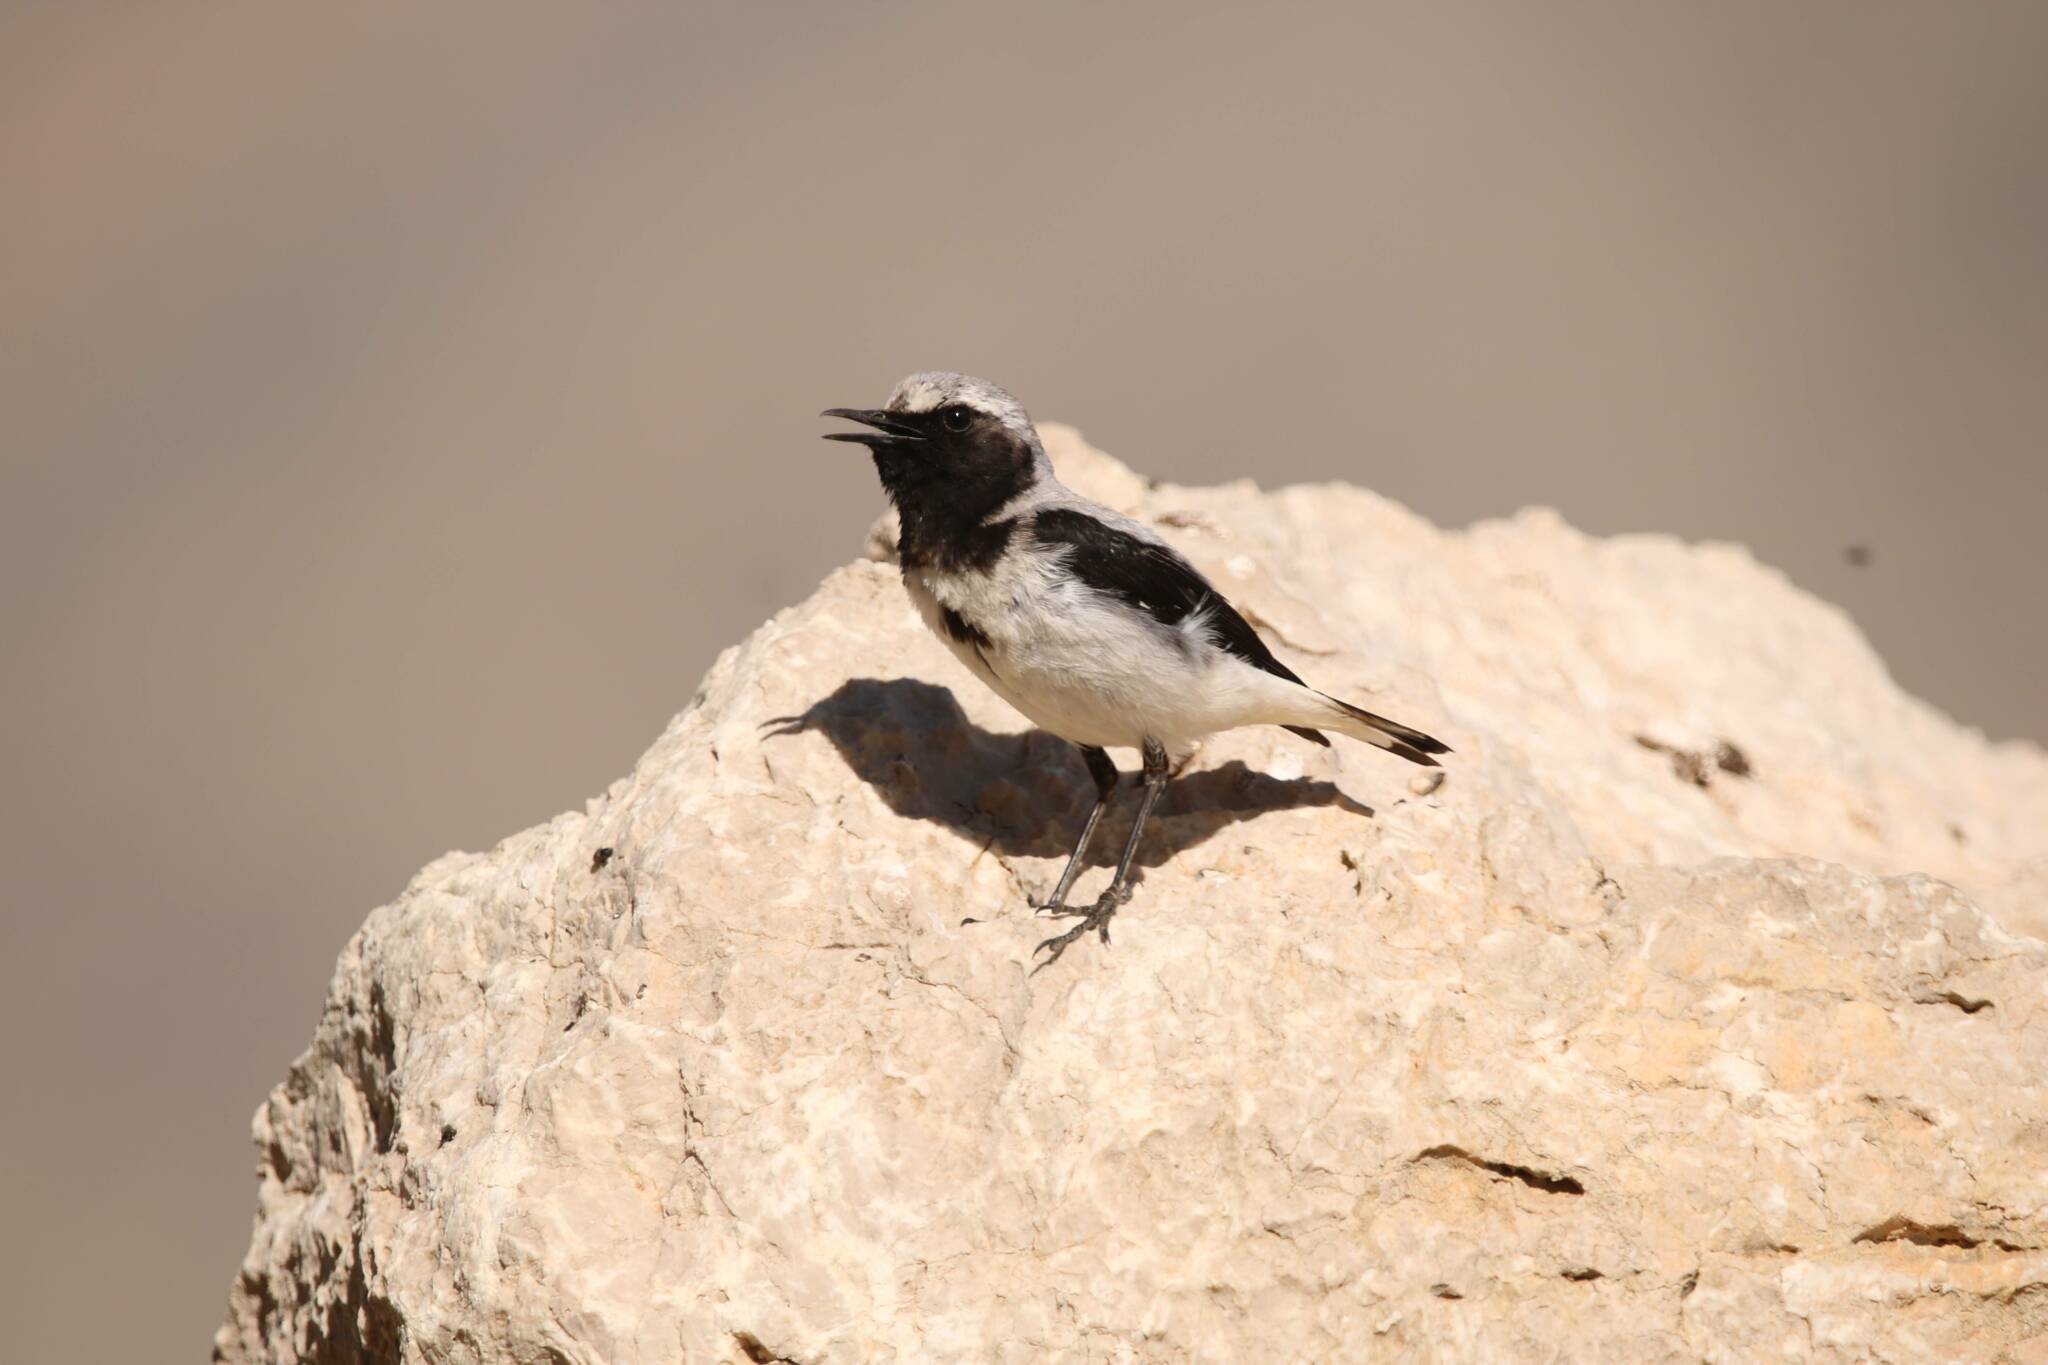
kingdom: Animalia
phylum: Chordata
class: Aves
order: Passeriformes
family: Muscicapidae
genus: Oenanthe
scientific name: Oenanthe oenanthe
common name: Northern wheatear
